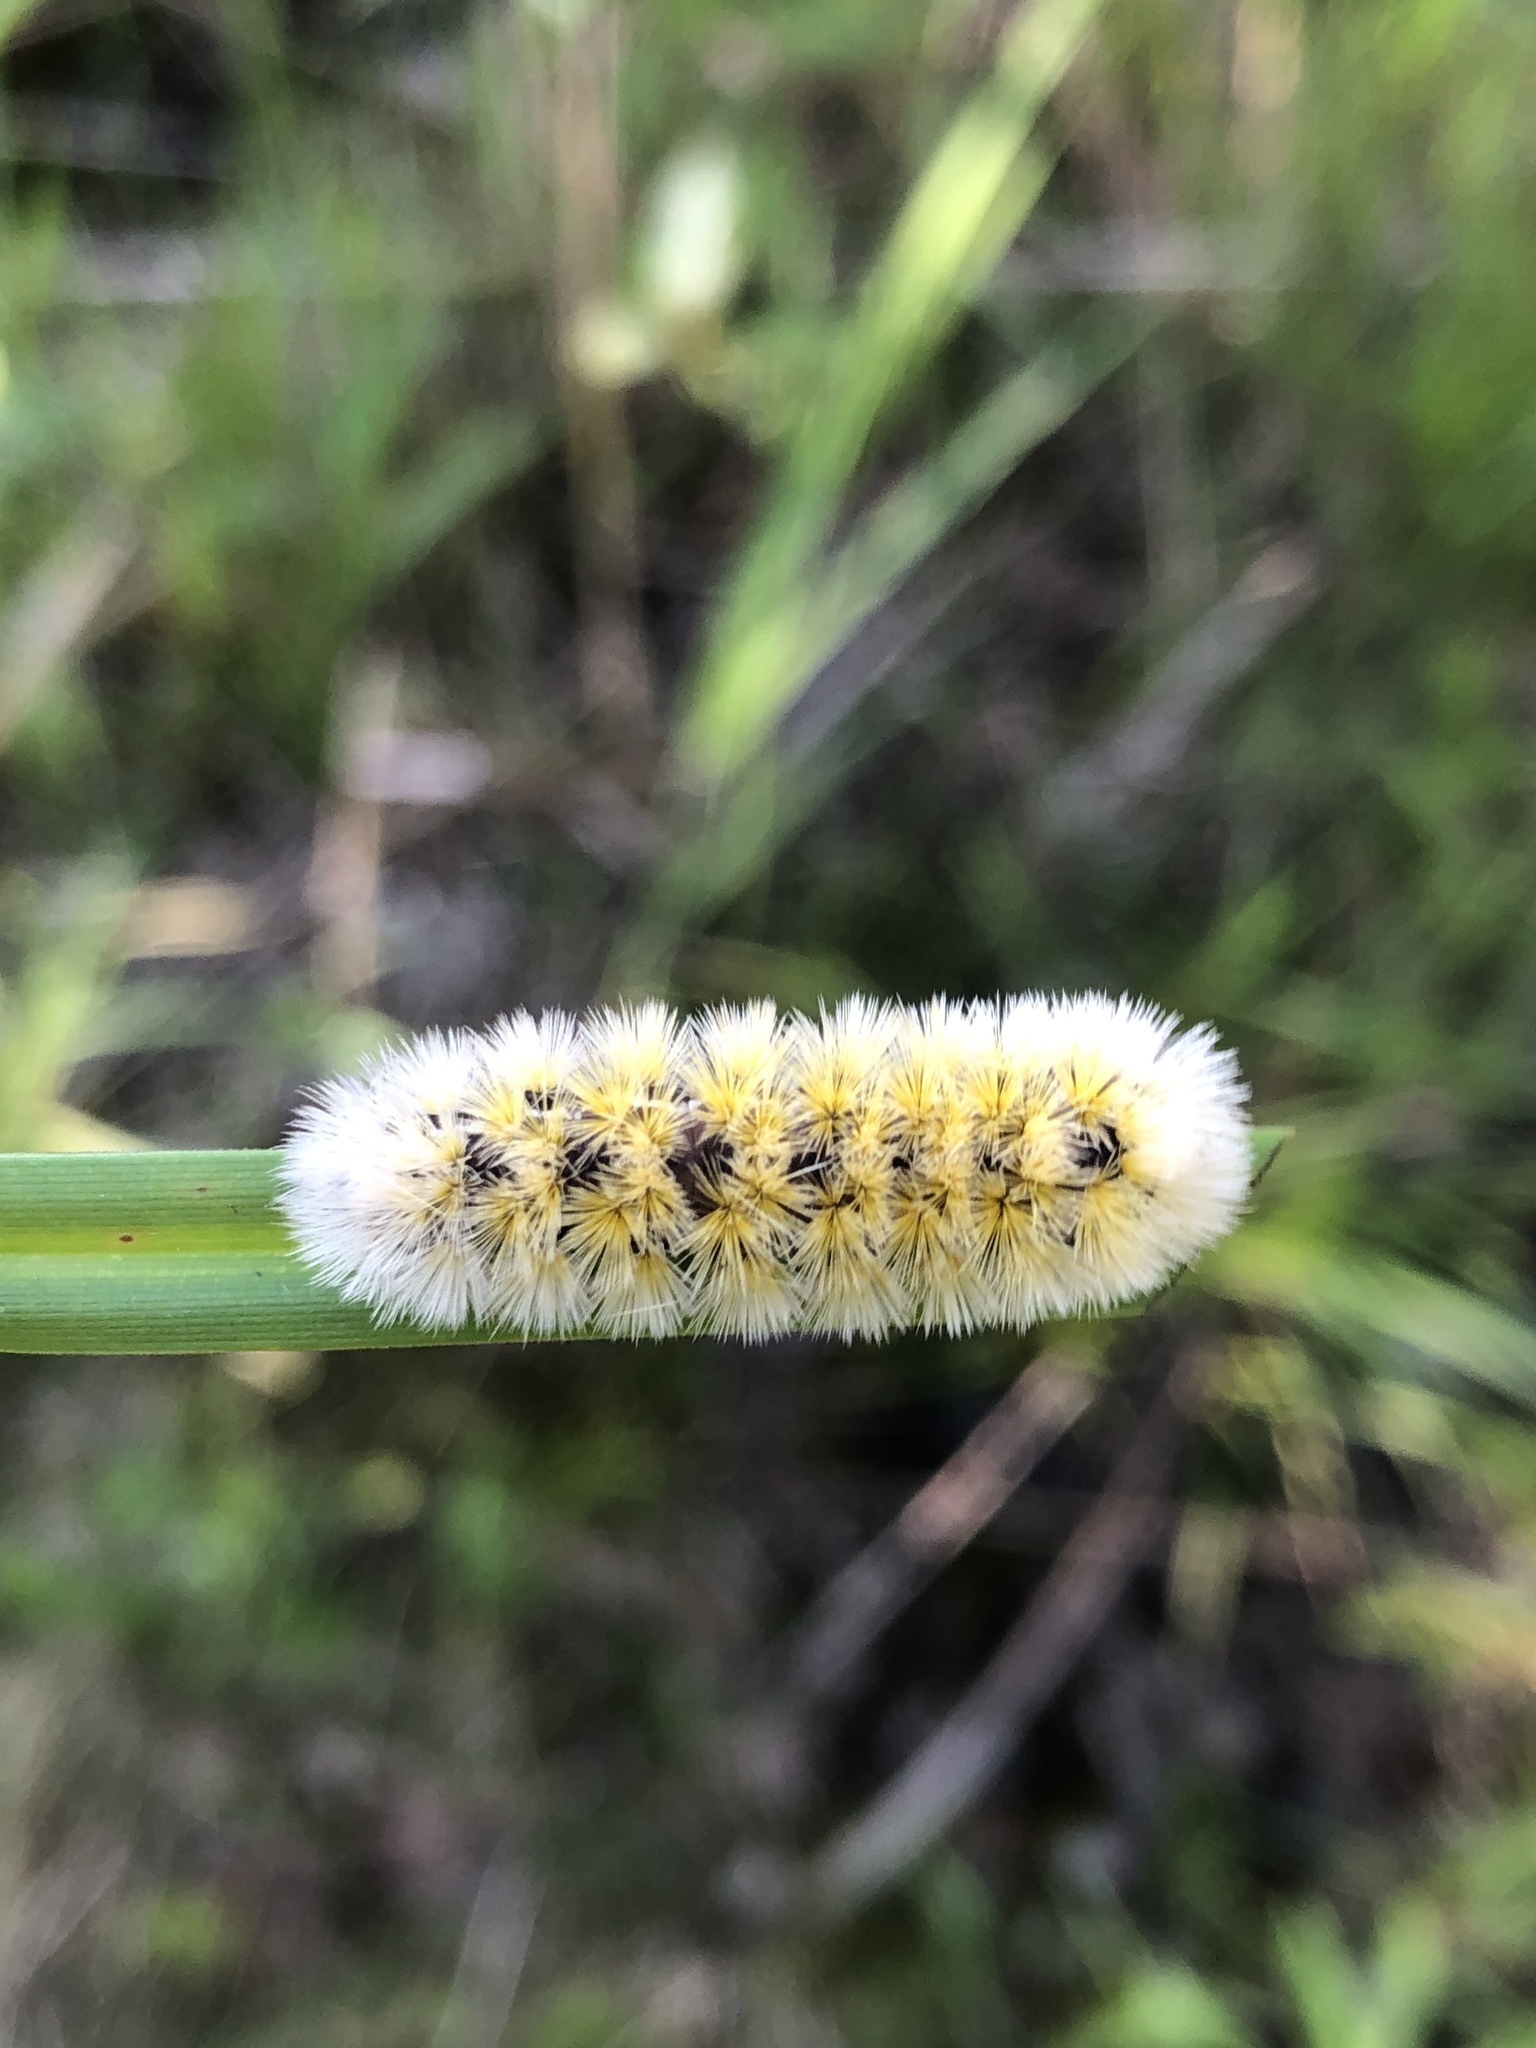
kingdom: Animalia
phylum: Arthropoda
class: Insecta
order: Lepidoptera
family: Erebidae
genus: Ctenucha
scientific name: Ctenucha virginica
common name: Virginia ctenucha moth
